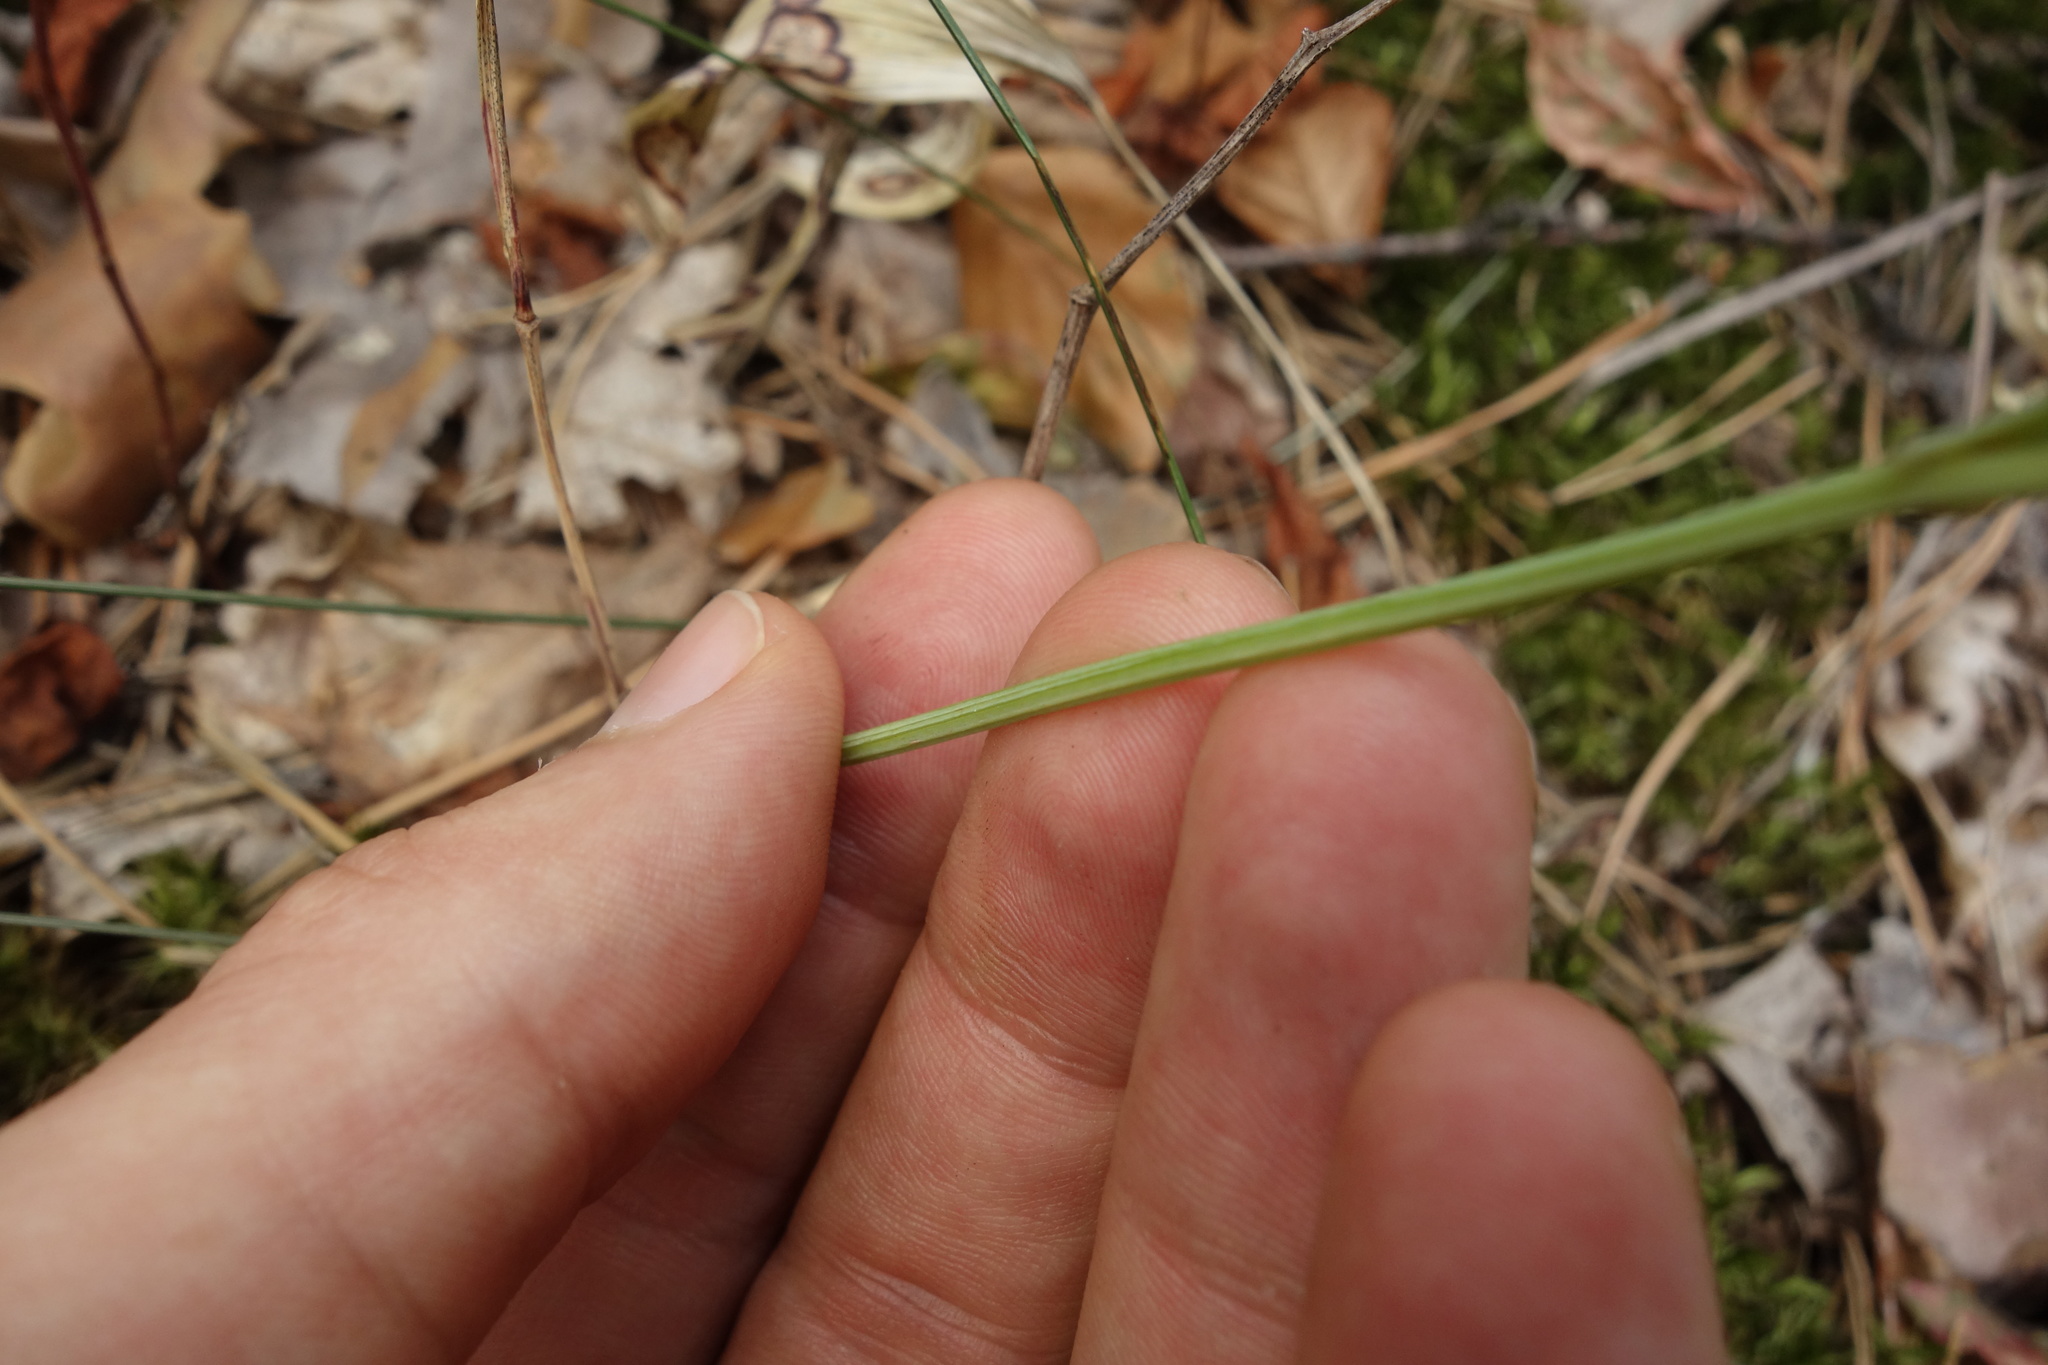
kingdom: Plantae
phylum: Tracheophyta
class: Liliopsida
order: Asparagales
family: Asparagaceae
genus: Polygonatum
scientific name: Polygonatum odoratum
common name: Angular solomon's-seal
